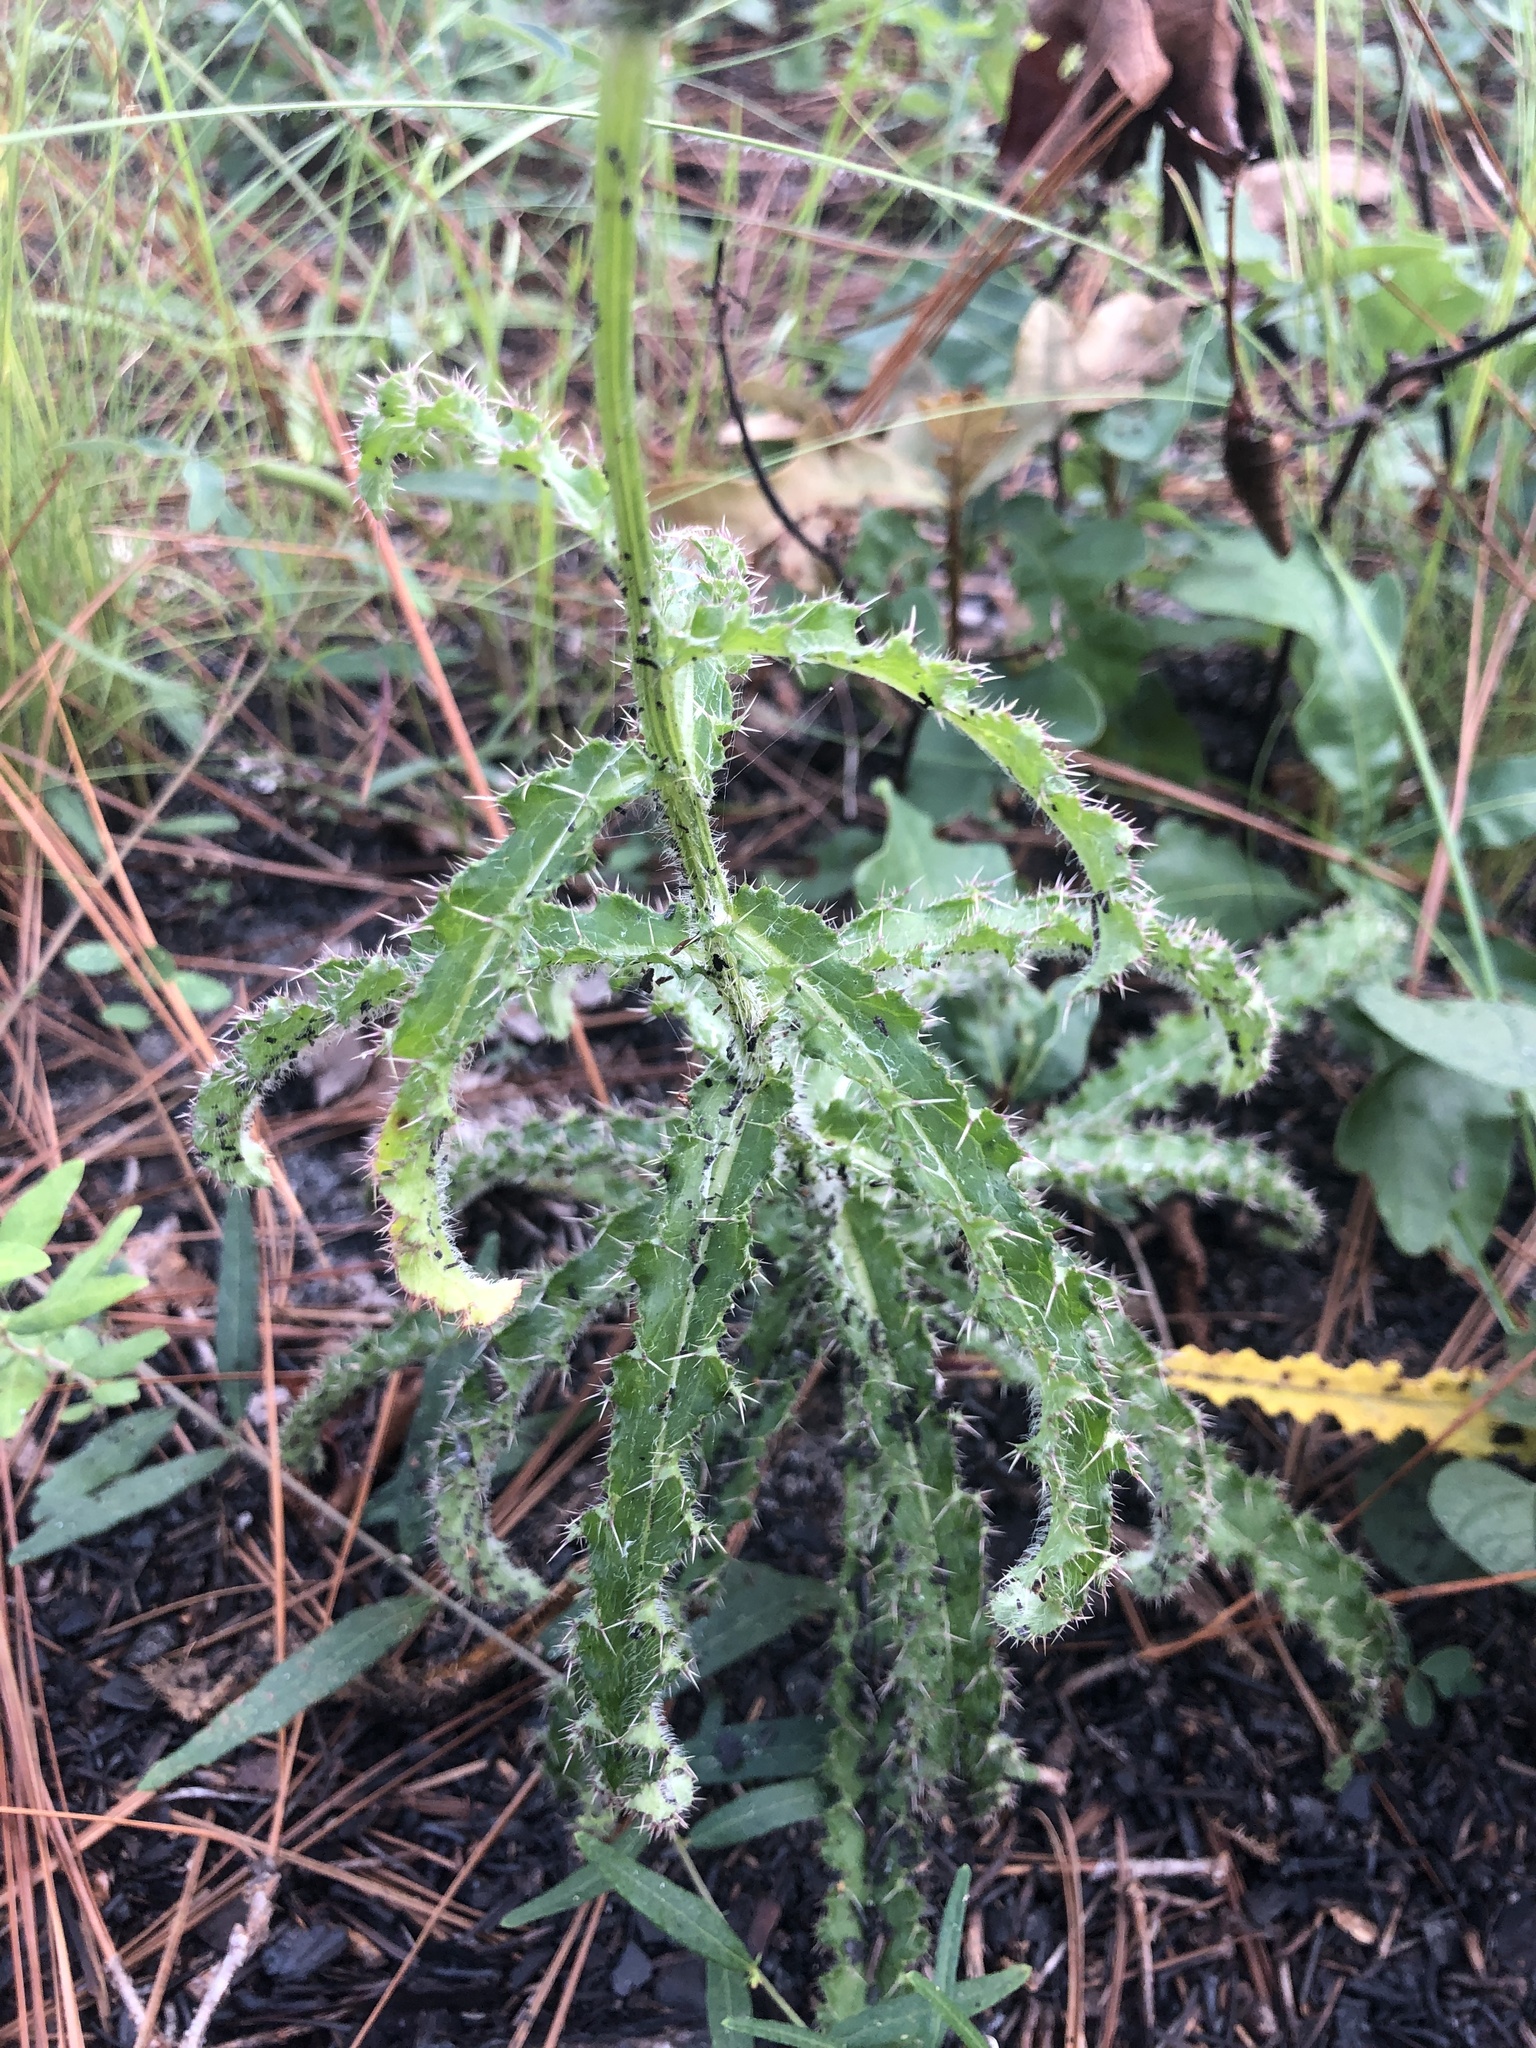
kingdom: Plantae
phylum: Tracheophyta
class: Magnoliopsida
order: Asterales
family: Asteraceae
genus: Cirsium
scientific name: Cirsium repandum
